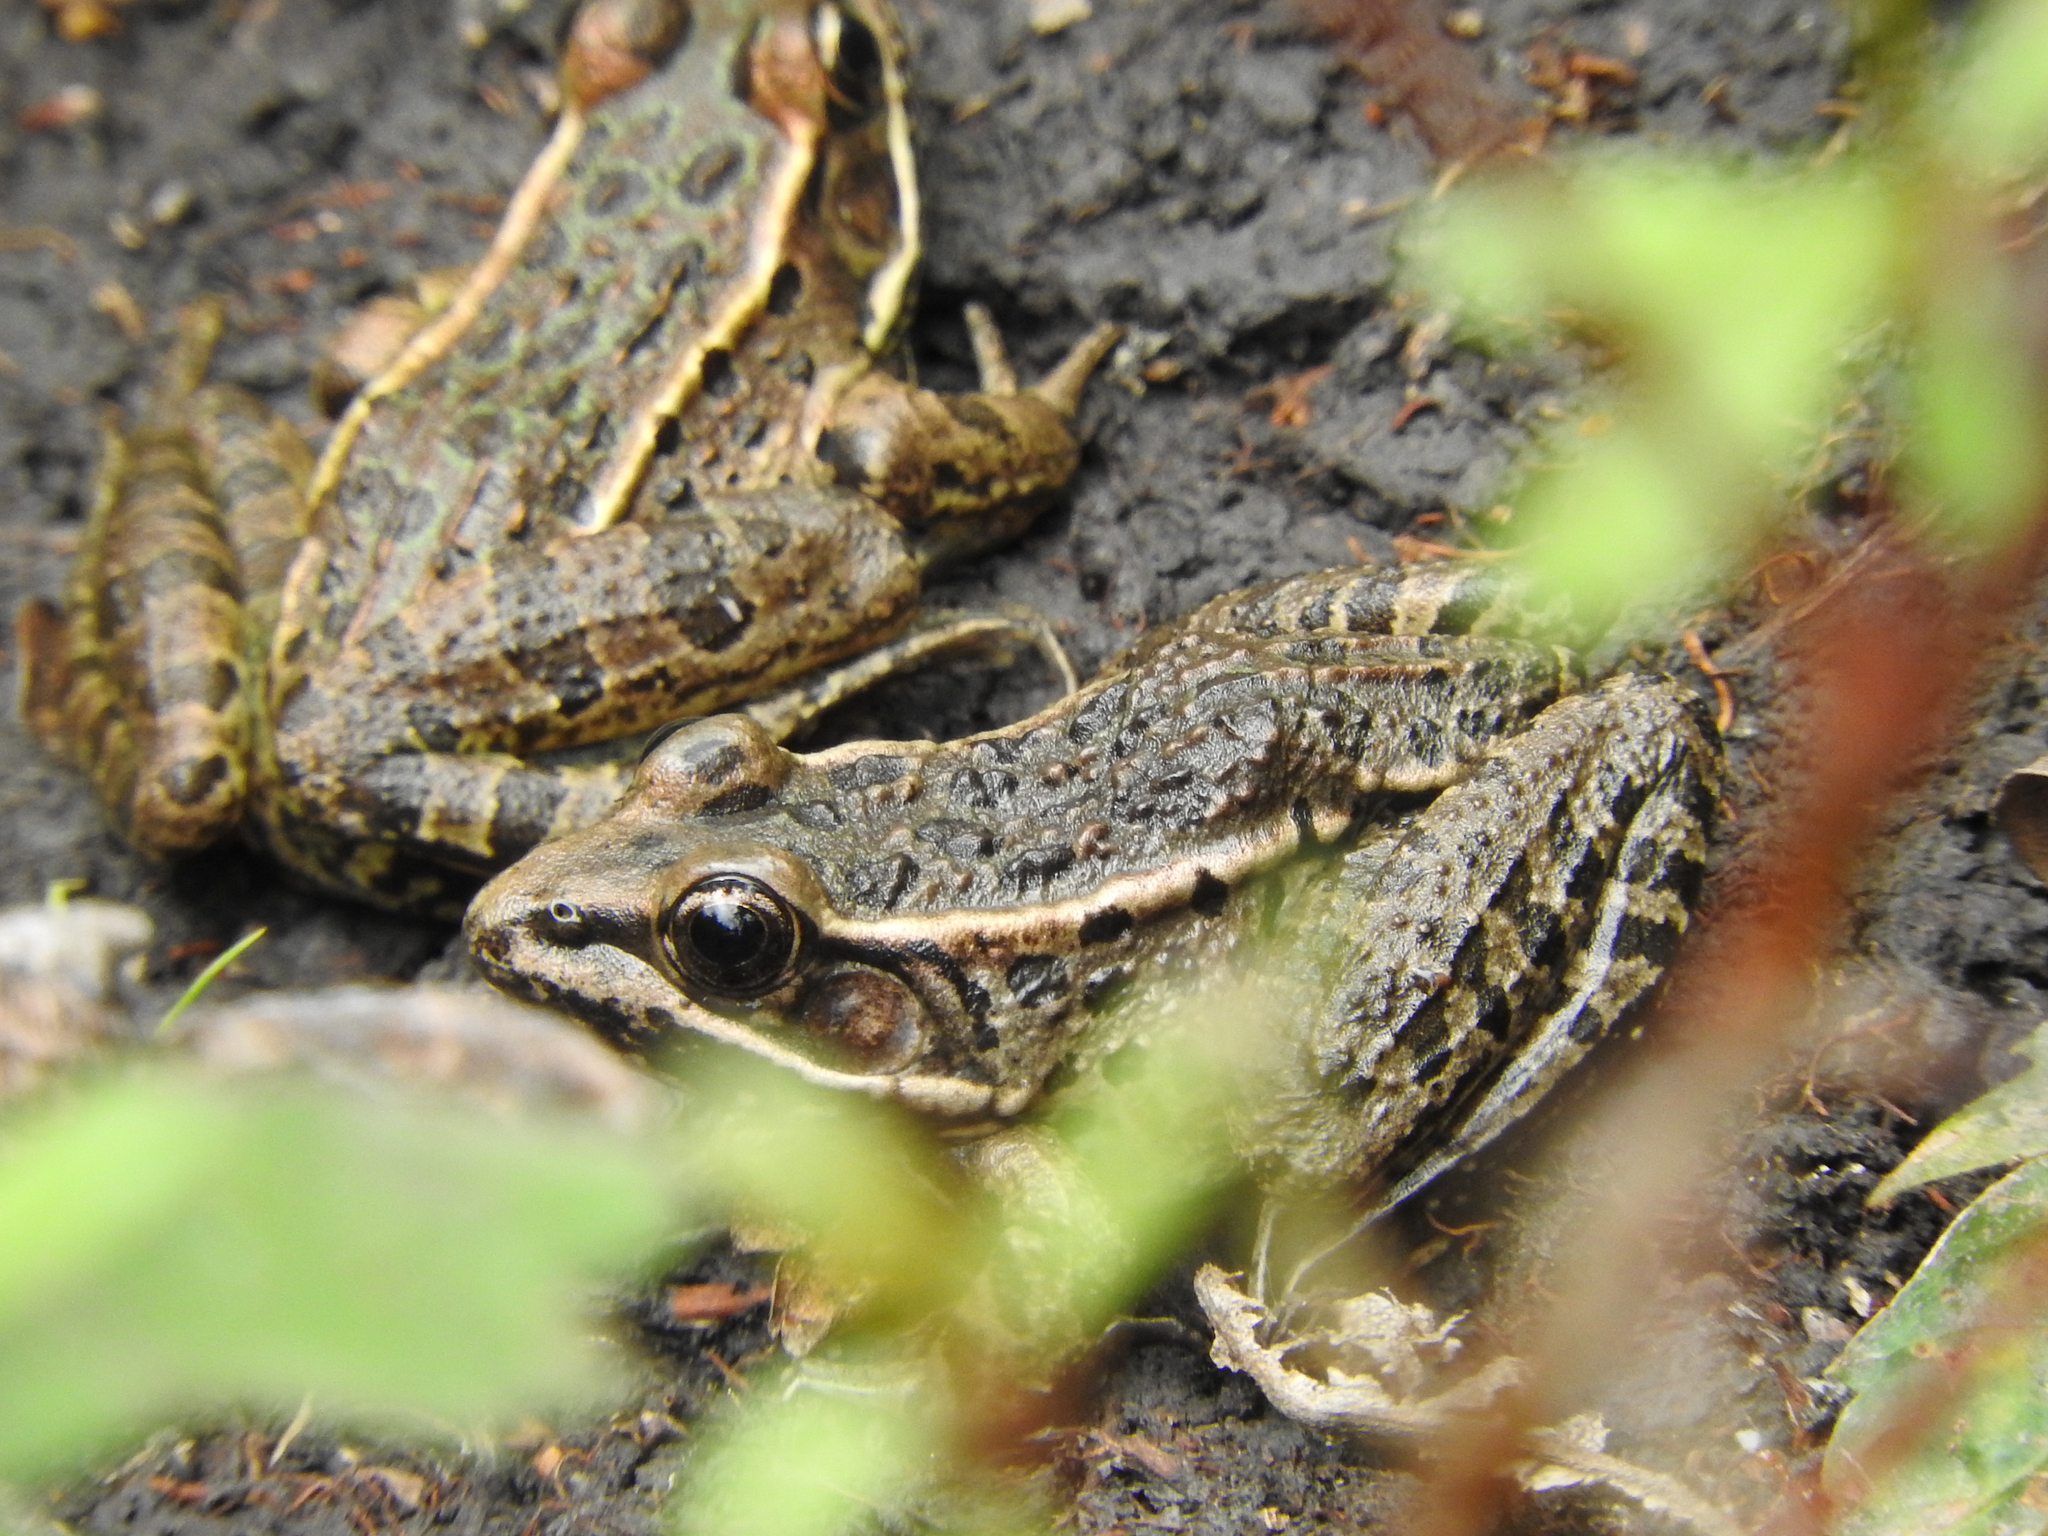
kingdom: Animalia
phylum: Chordata
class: Amphibia
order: Anura
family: Ranidae
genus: Lithobates
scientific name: Lithobates neovolcanicus
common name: Transverse volcanic leopard frog
